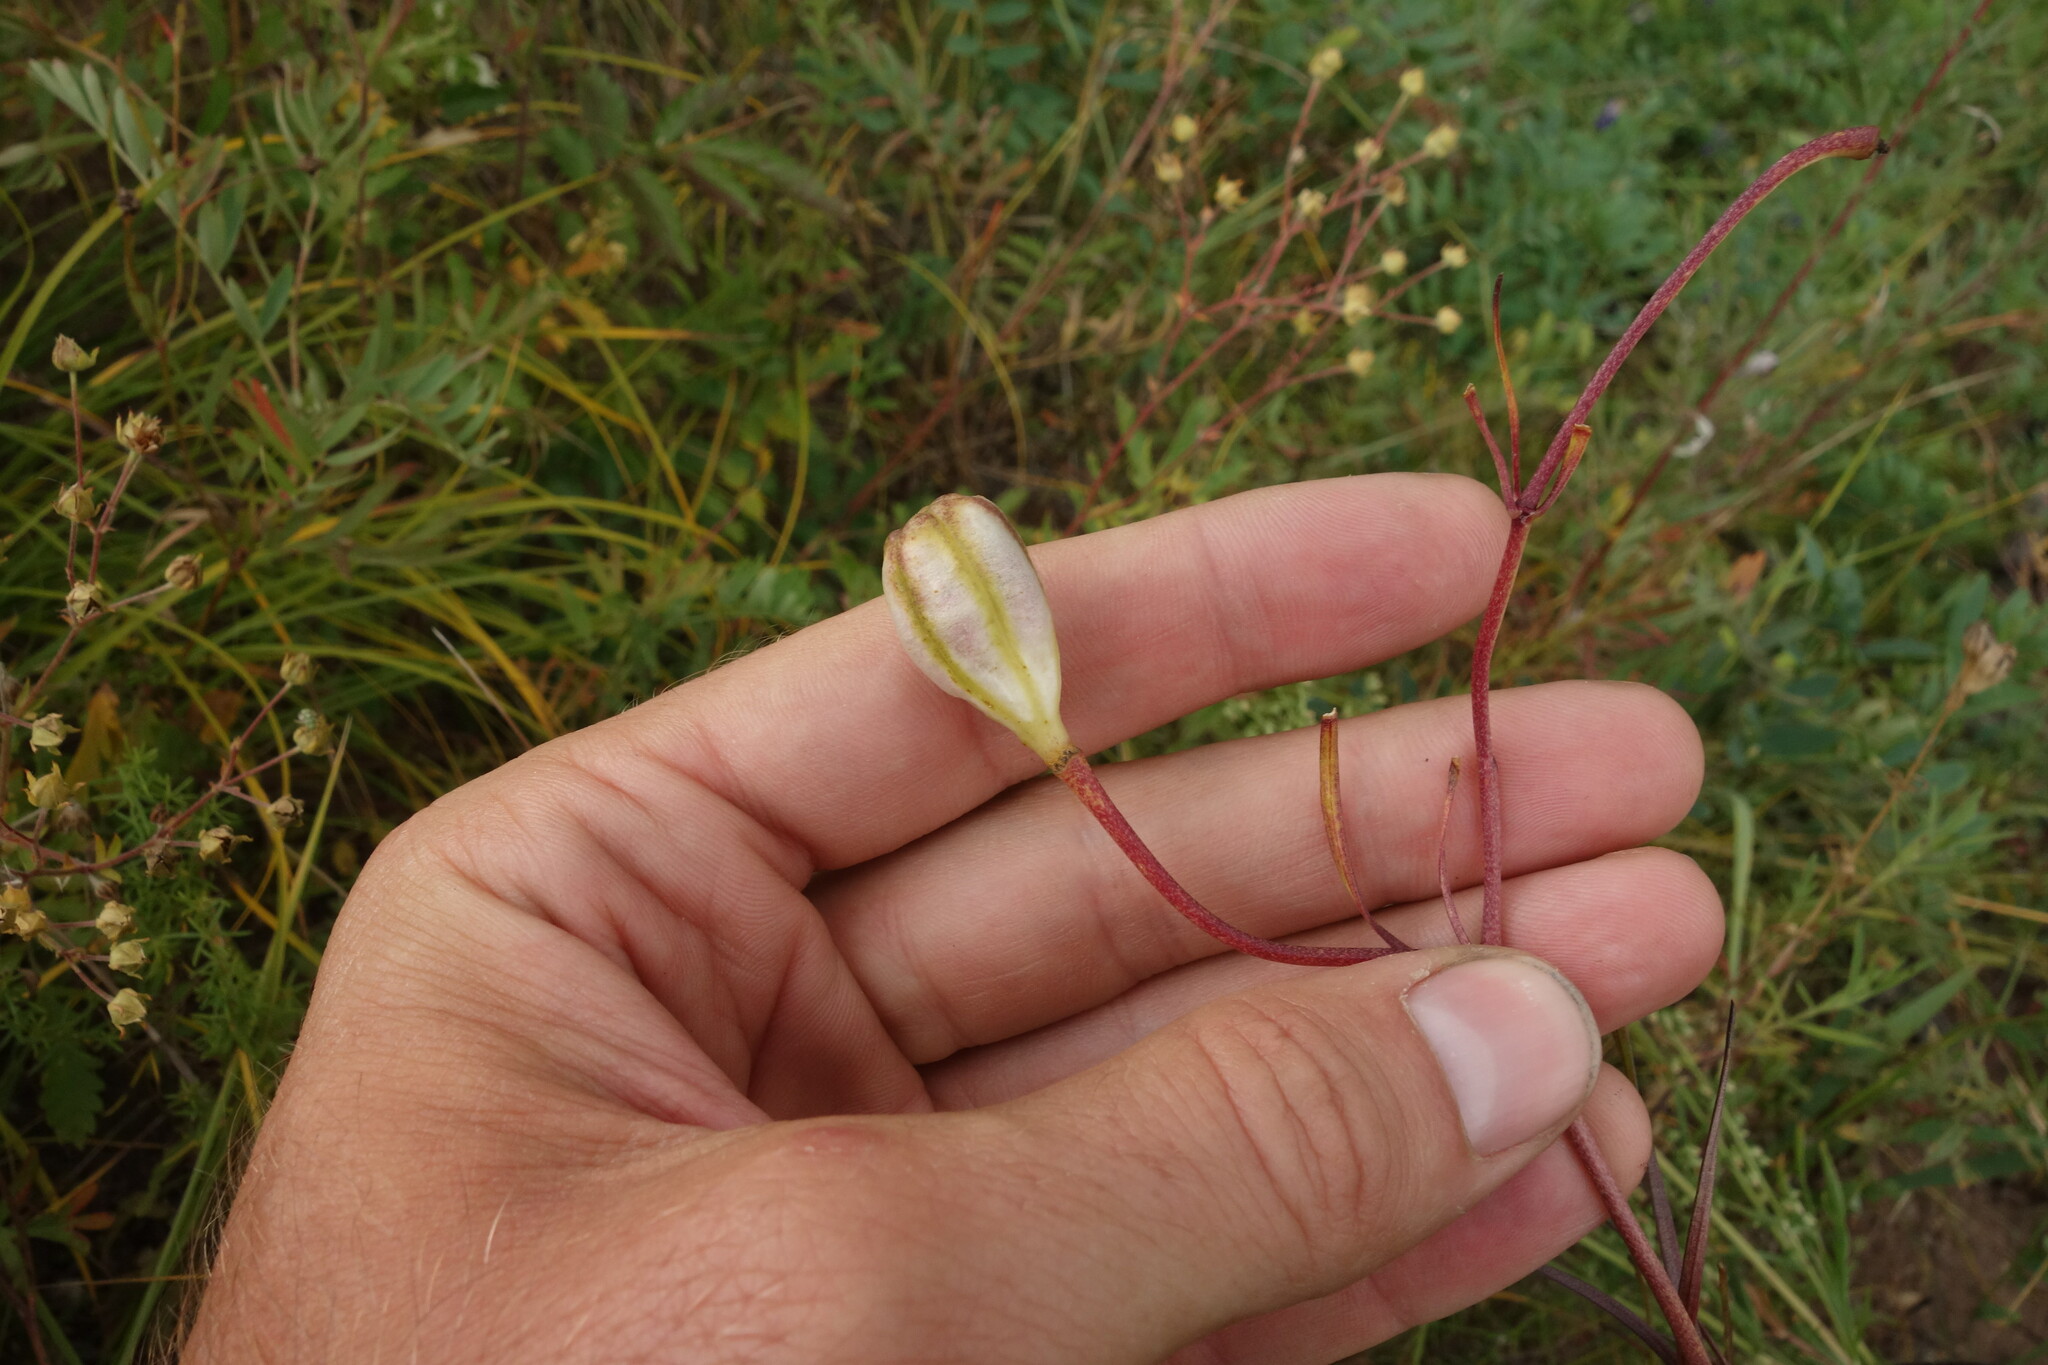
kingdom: Plantae
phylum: Tracheophyta
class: Liliopsida
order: Liliales
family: Liliaceae
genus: Lilium
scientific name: Lilium pumilum
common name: Coral lily
